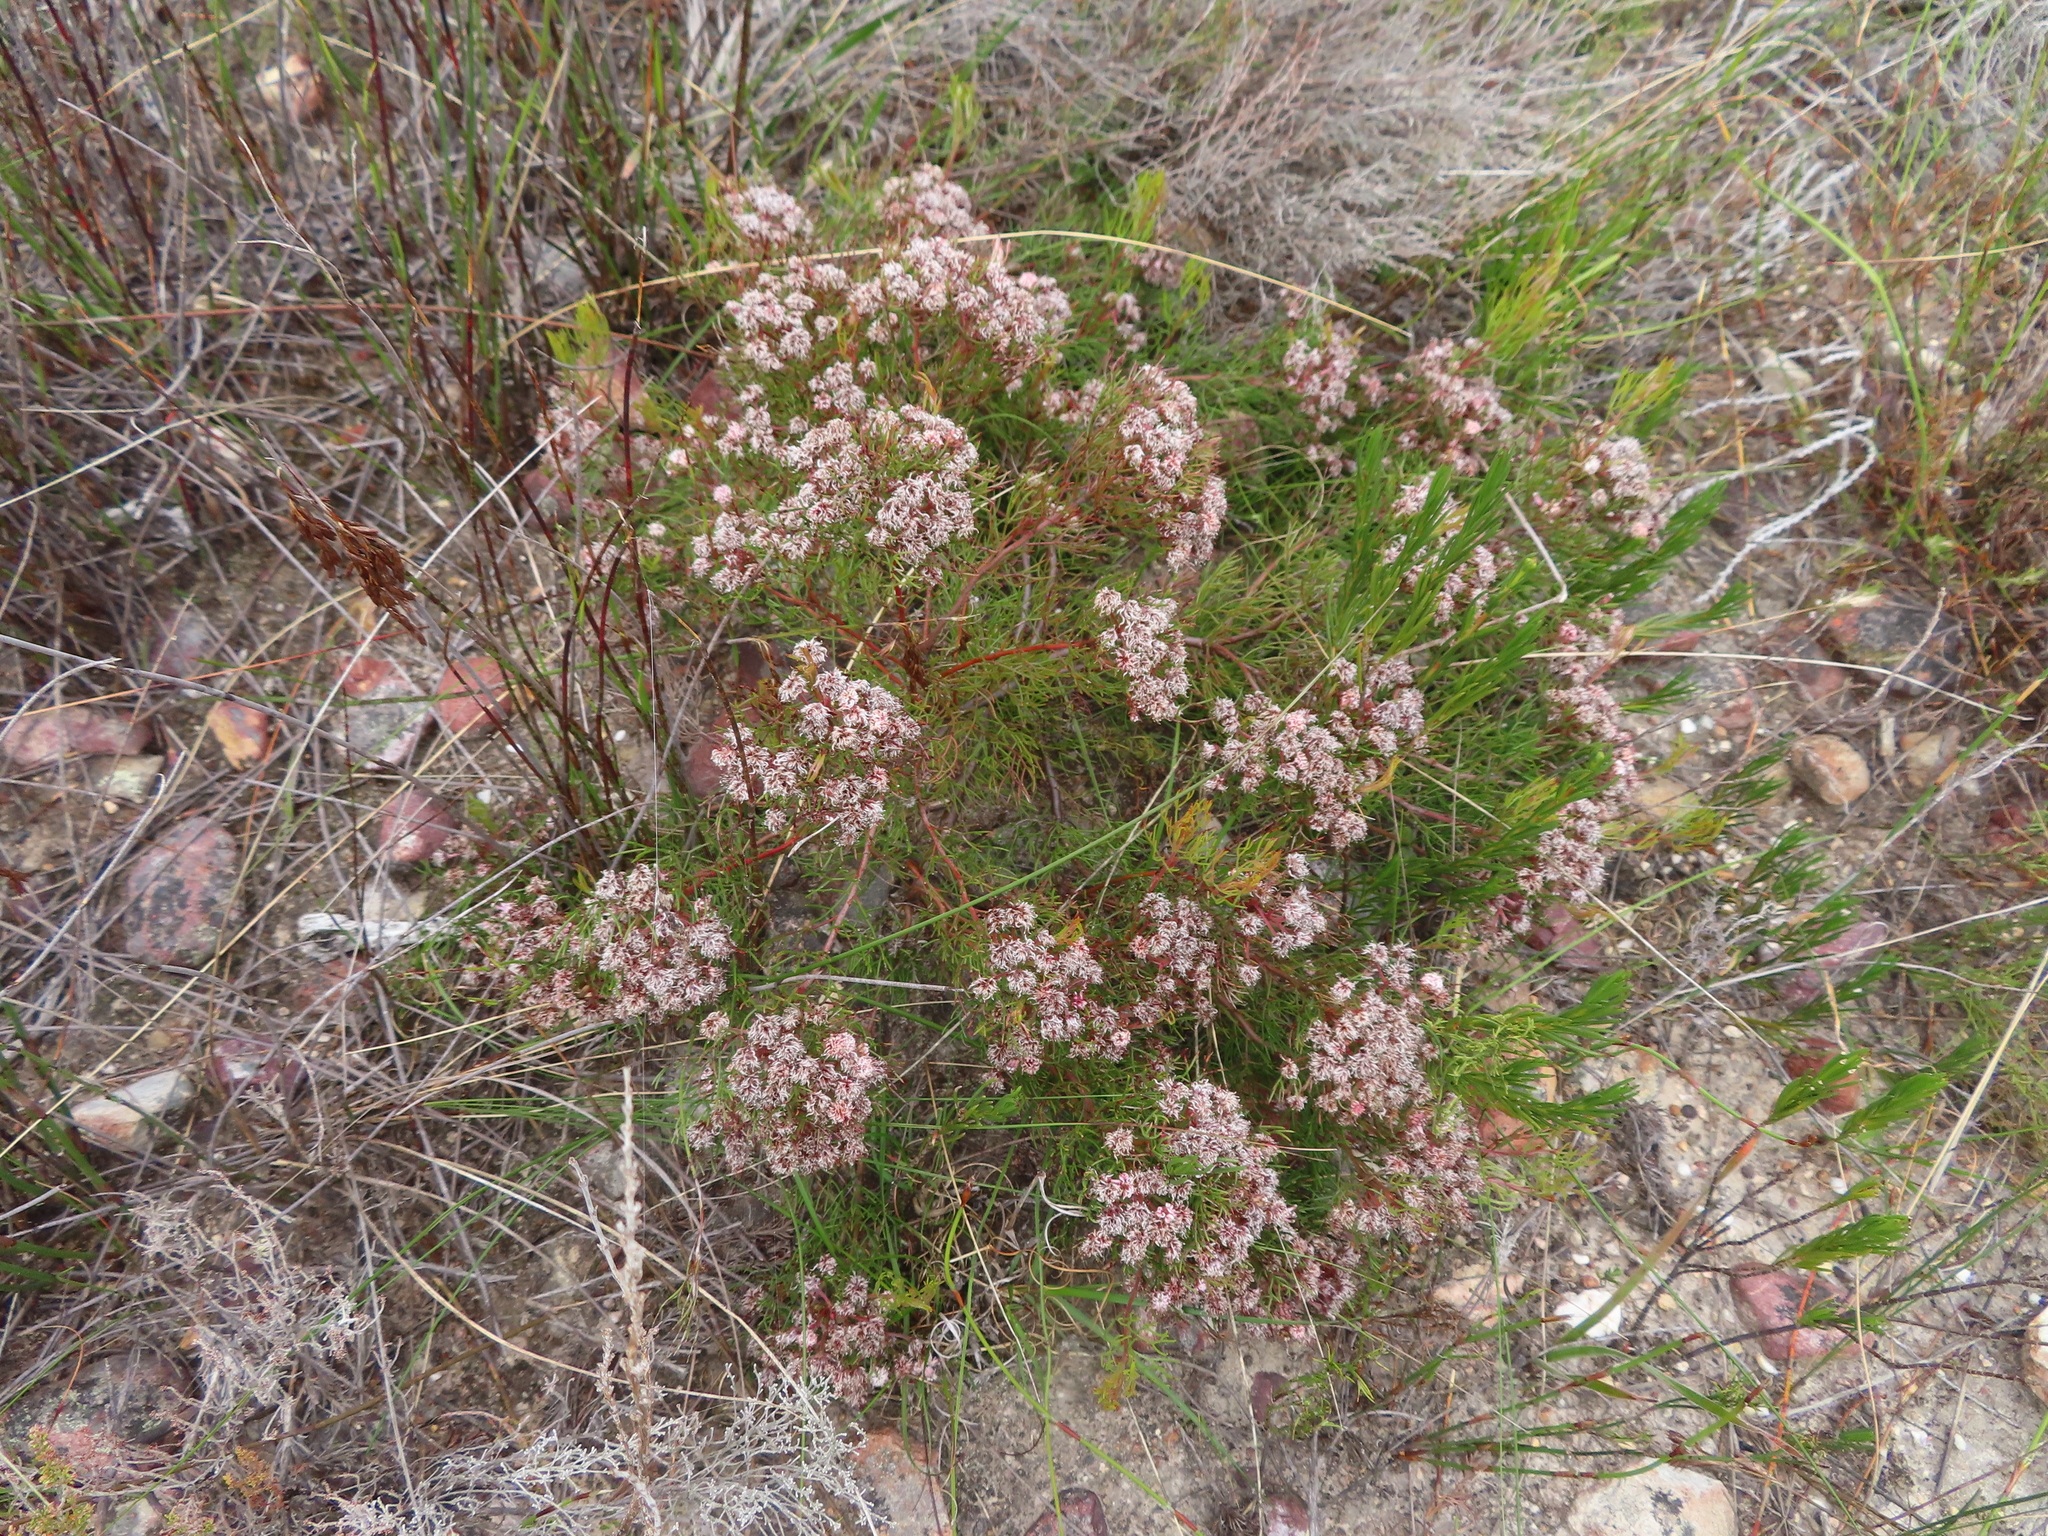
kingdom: Plantae
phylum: Tracheophyta
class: Magnoliopsida
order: Proteales
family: Proteaceae
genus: Serruria
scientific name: Serruria fasciflora
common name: Common pin spiderhead
